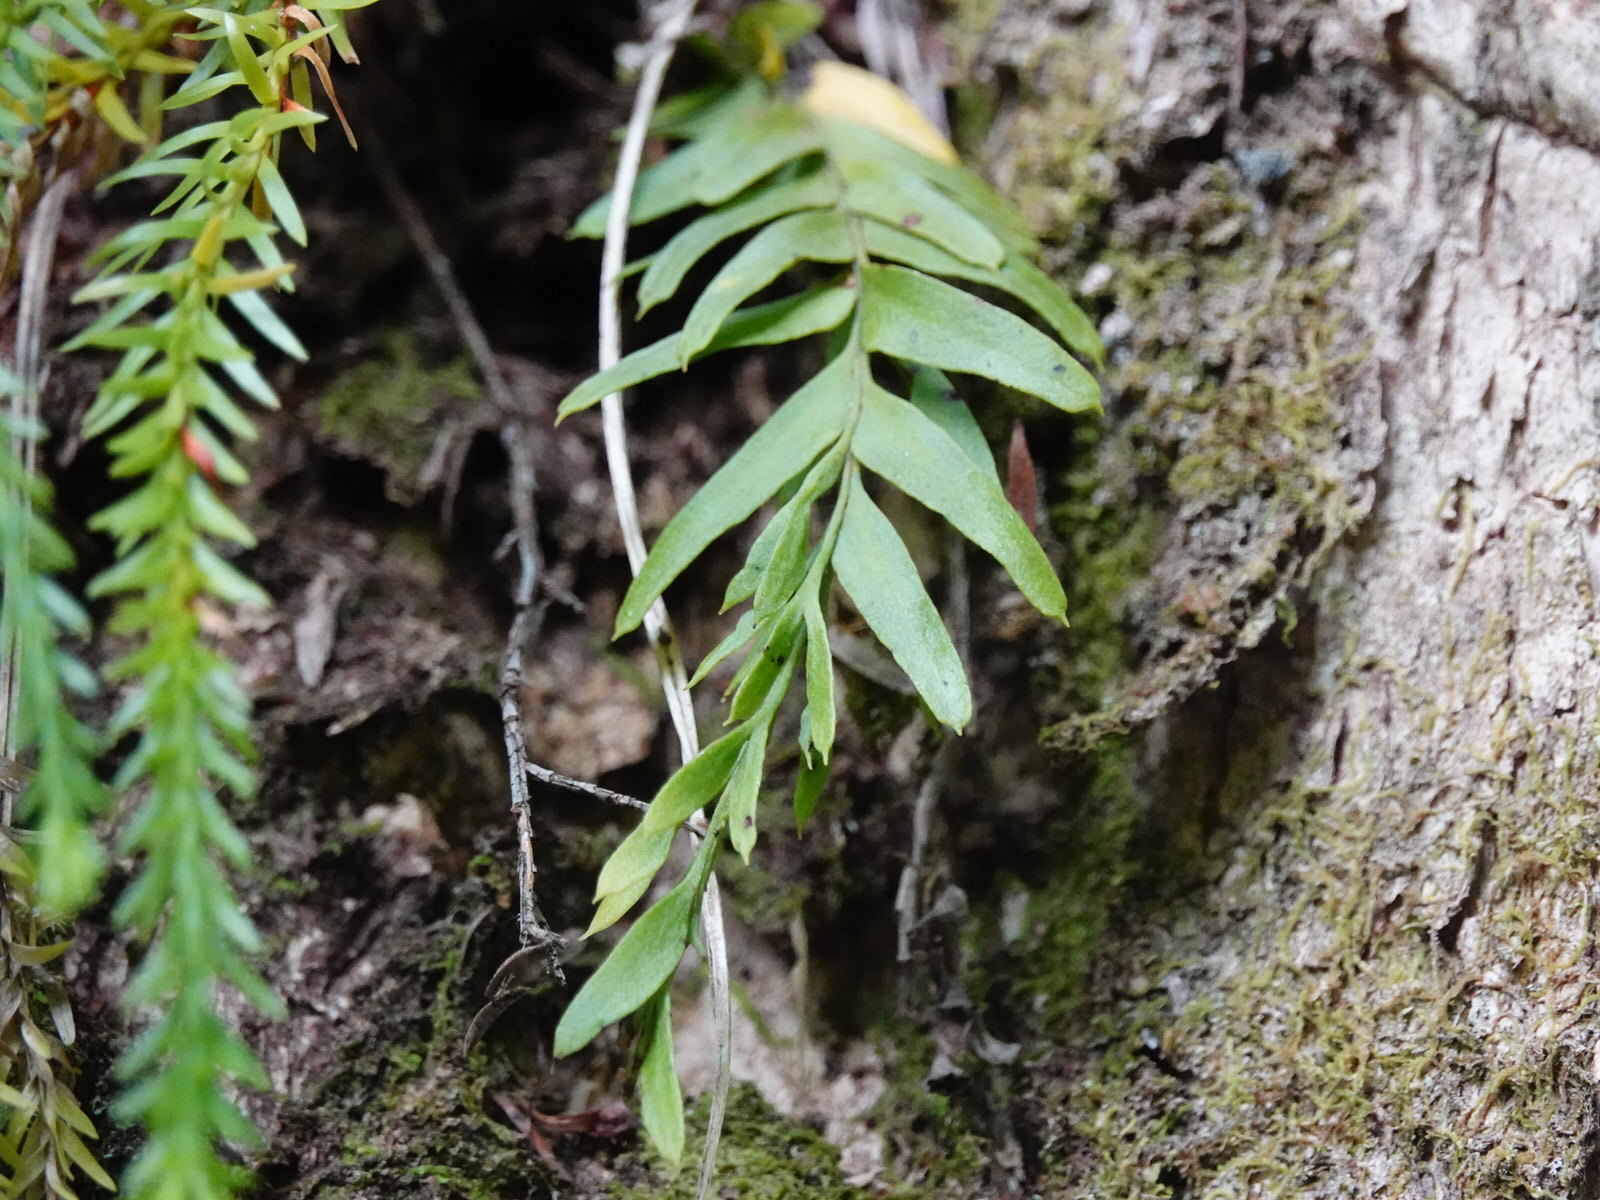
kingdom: Plantae
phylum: Tracheophyta
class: Polypodiopsida
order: Psilotales
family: Psilotaceae
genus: Tmesipteris
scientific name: Tmesipteris elongata
